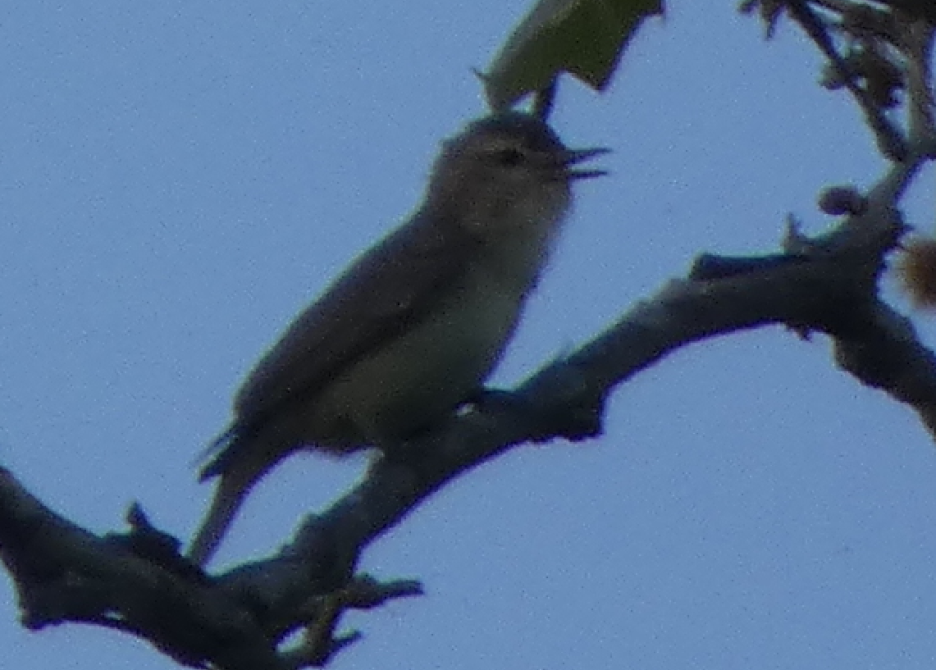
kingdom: Animalia
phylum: Chordata
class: Aves
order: Passeriformes
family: Vireonidae
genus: Vireo
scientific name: Vireo gilvus
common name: Warbling vireo
